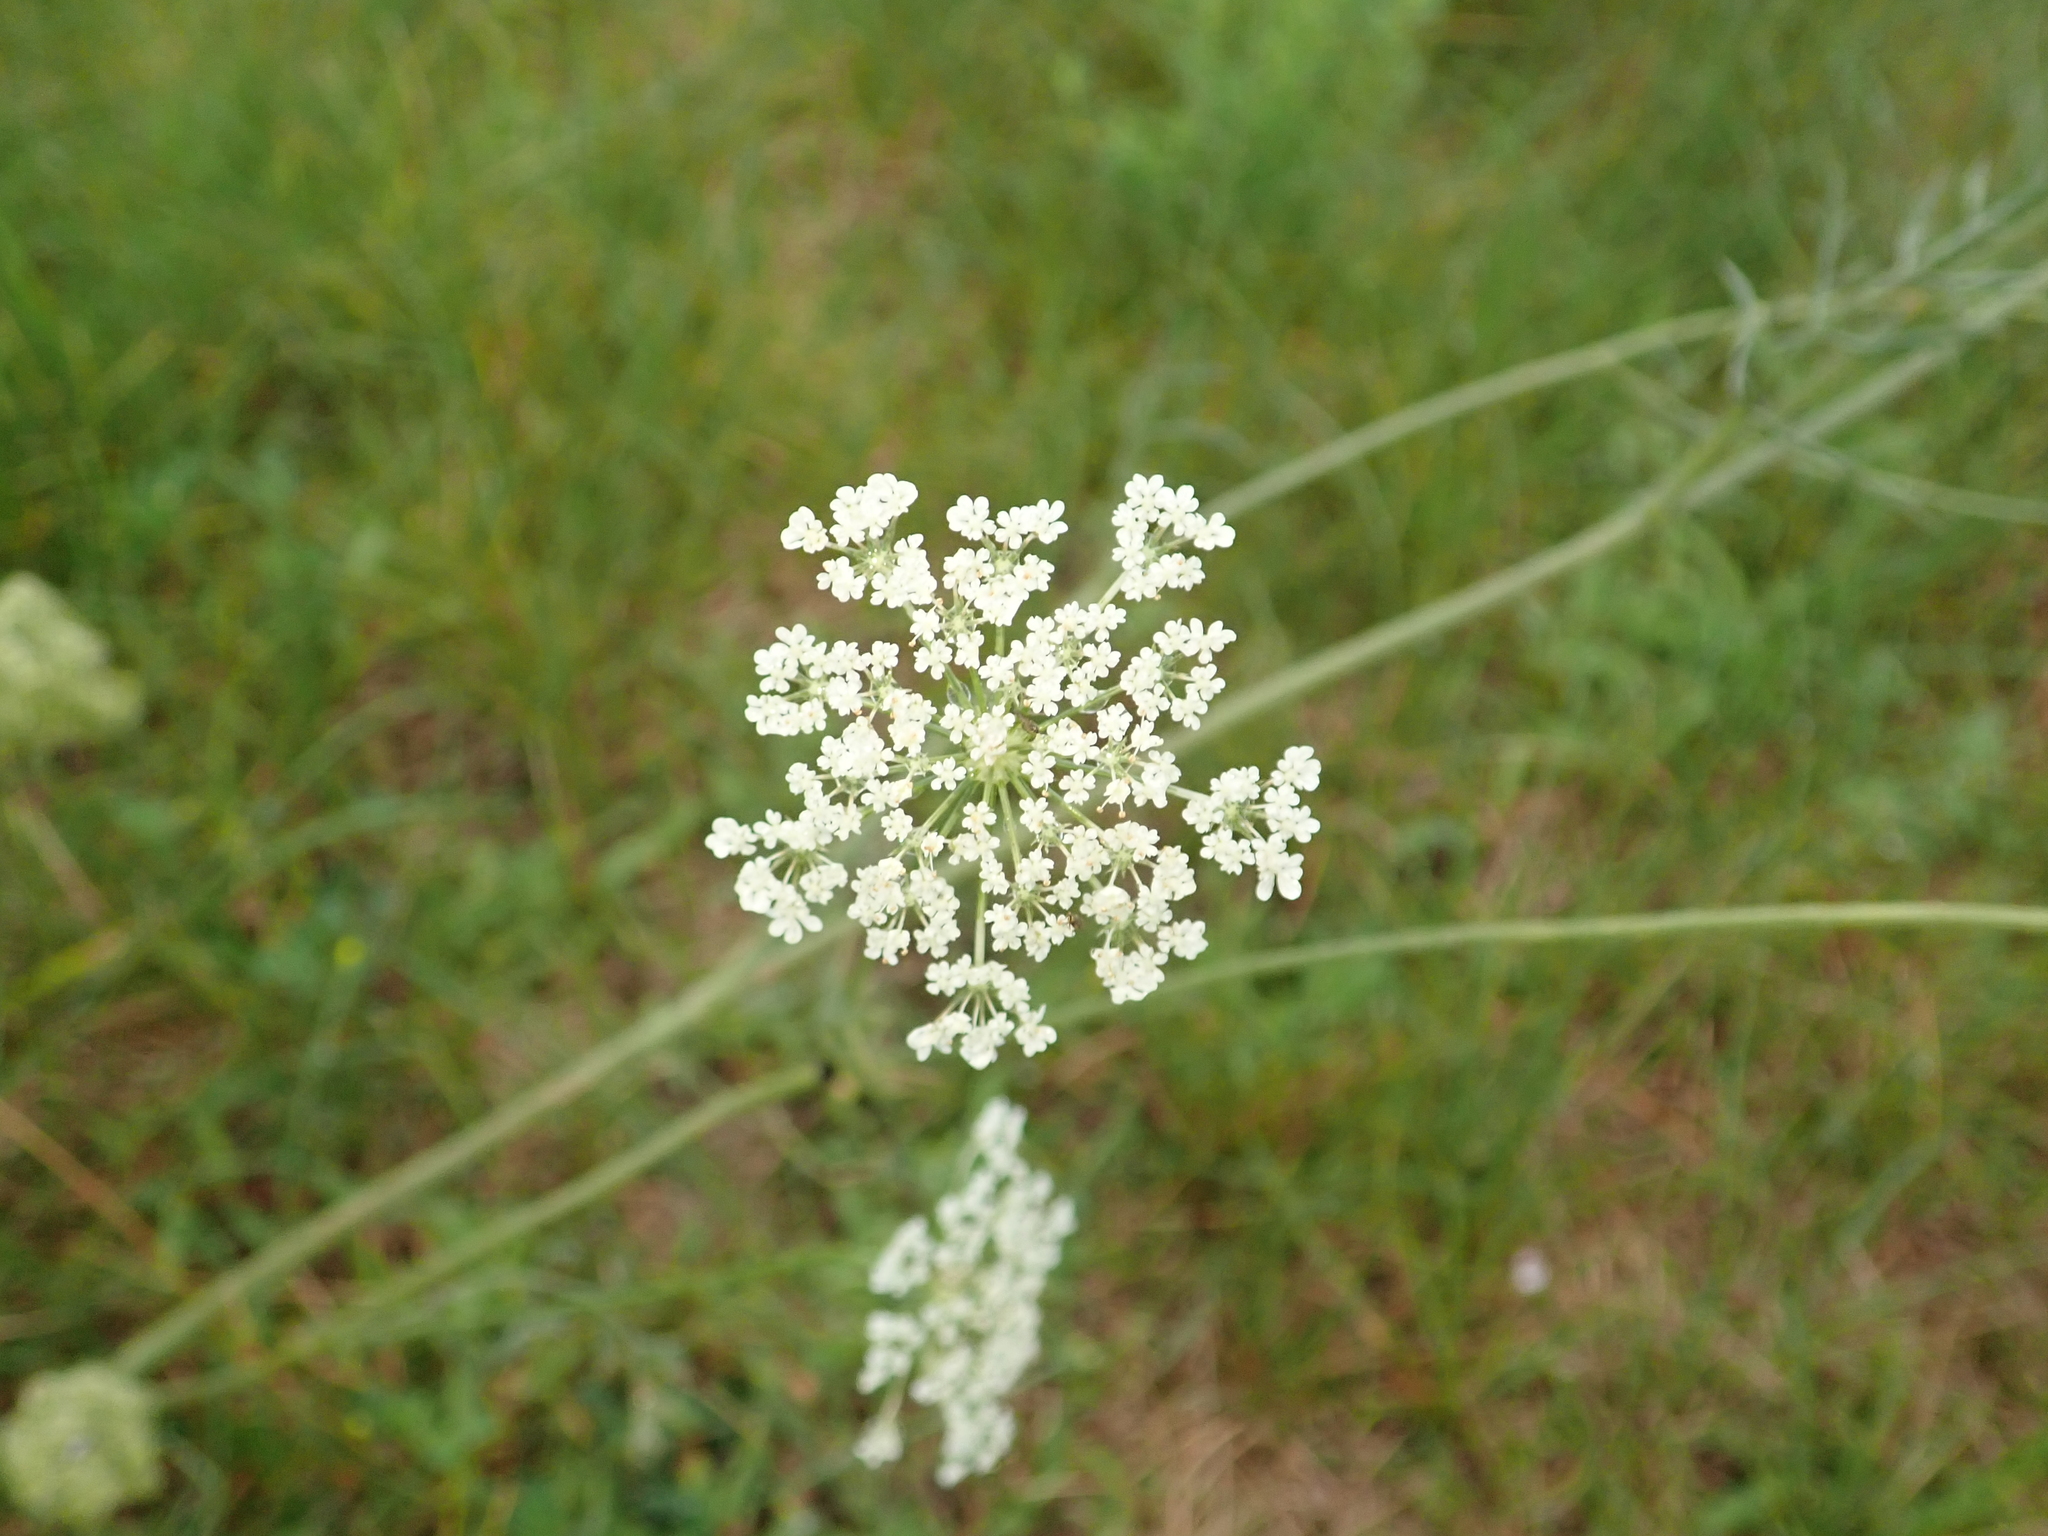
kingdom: Plantae
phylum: Tracheophyta
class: Magnoliopsida
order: Apiales
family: Apiaceae
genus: Daucus
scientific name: Daucus carota
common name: Wild carrot
